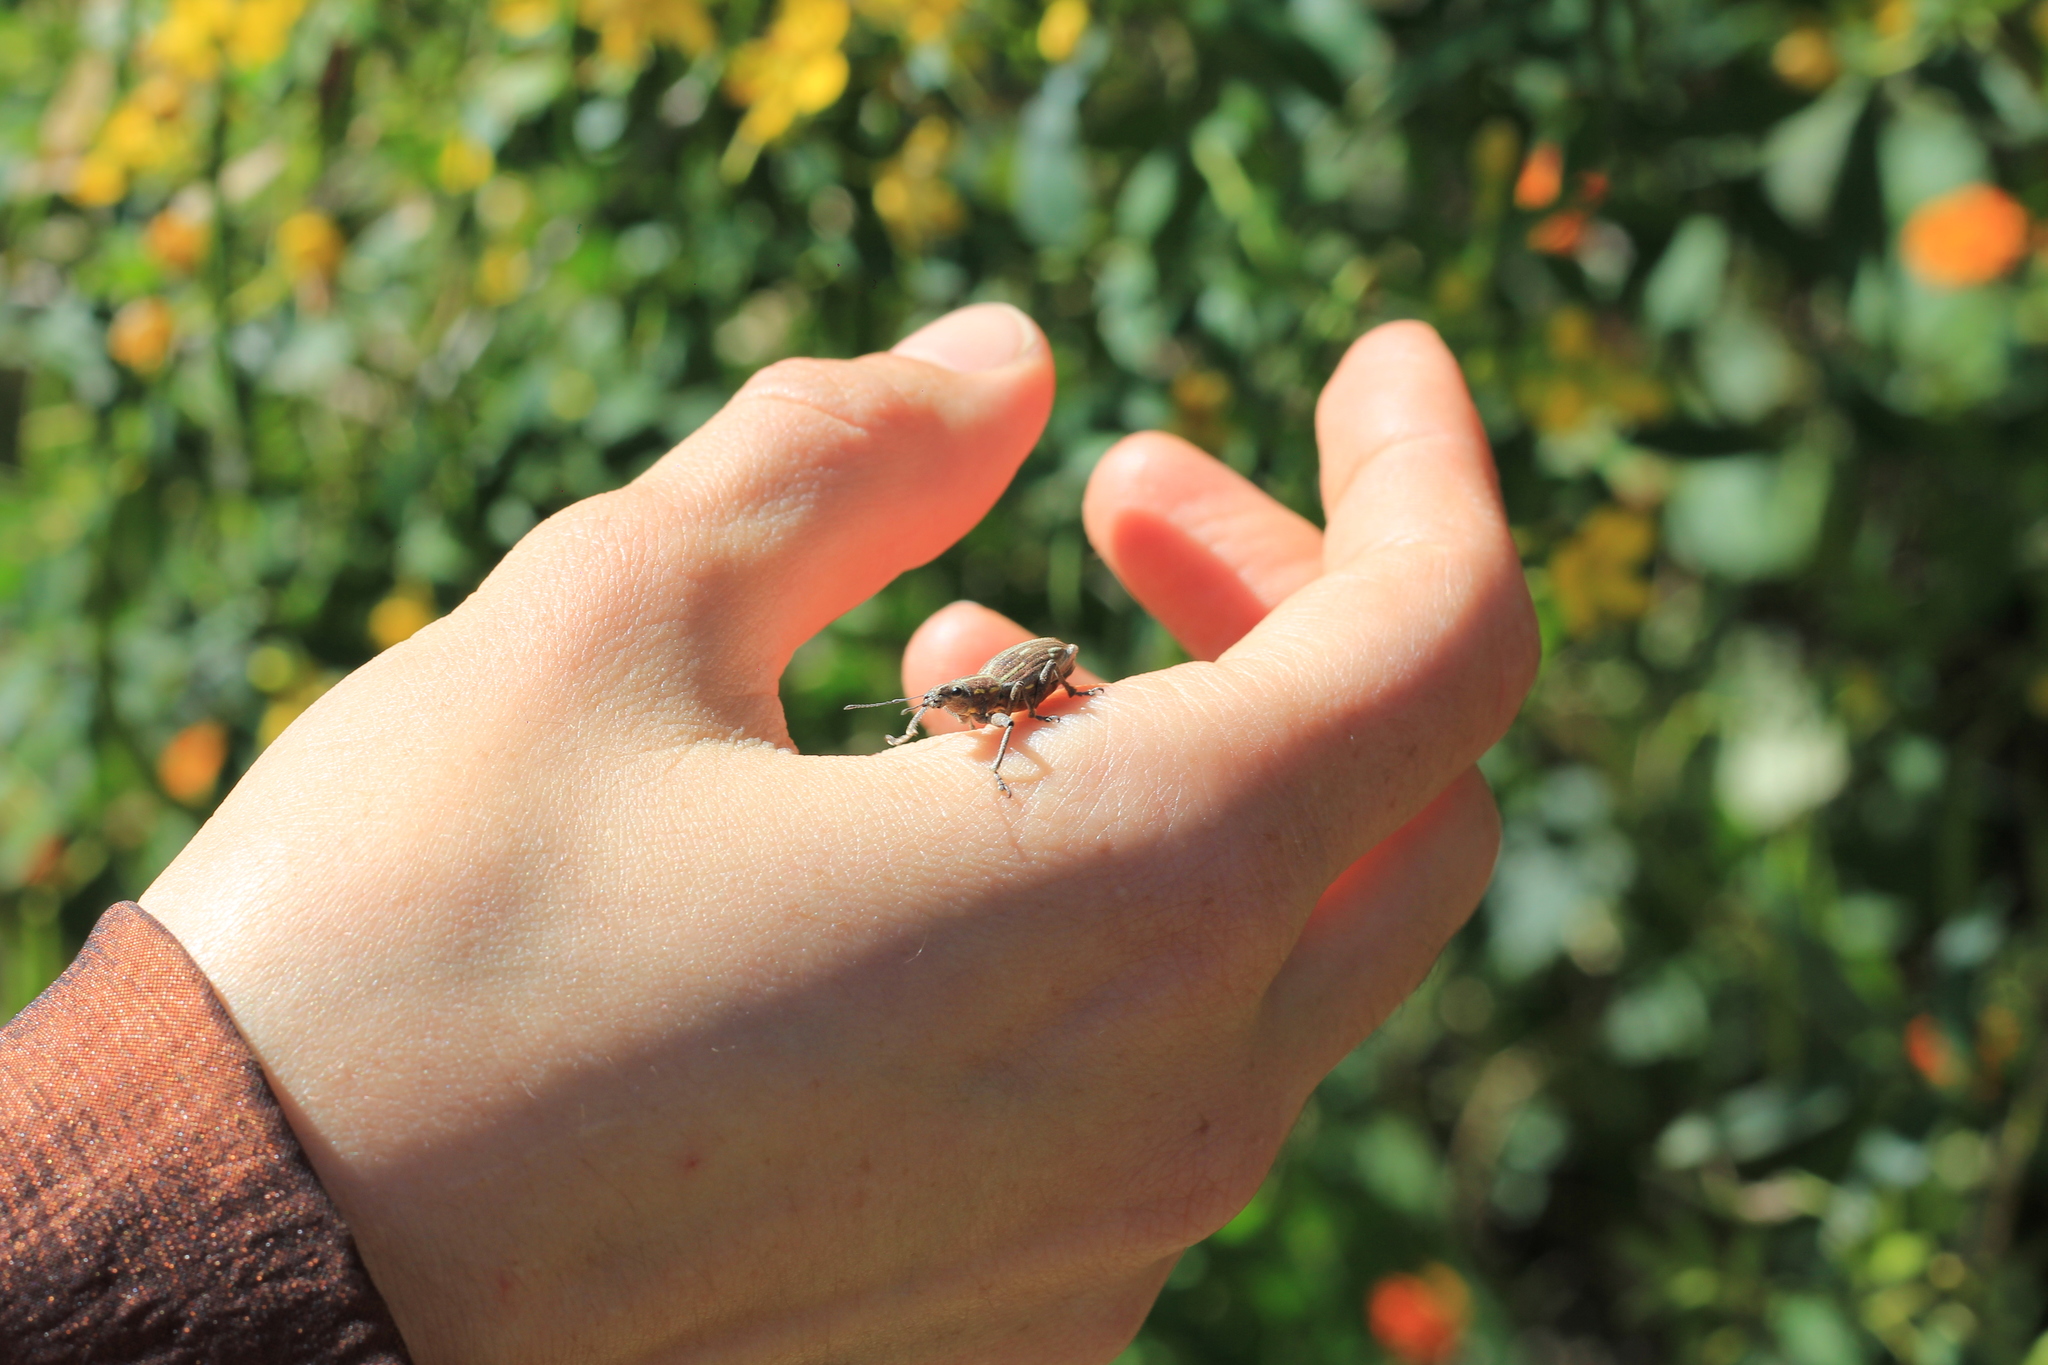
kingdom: Animalia
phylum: Arthropoda
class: Insecta
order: Coleoptera
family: Curculionidae
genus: Naupactus
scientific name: Naupactus xanthographus
